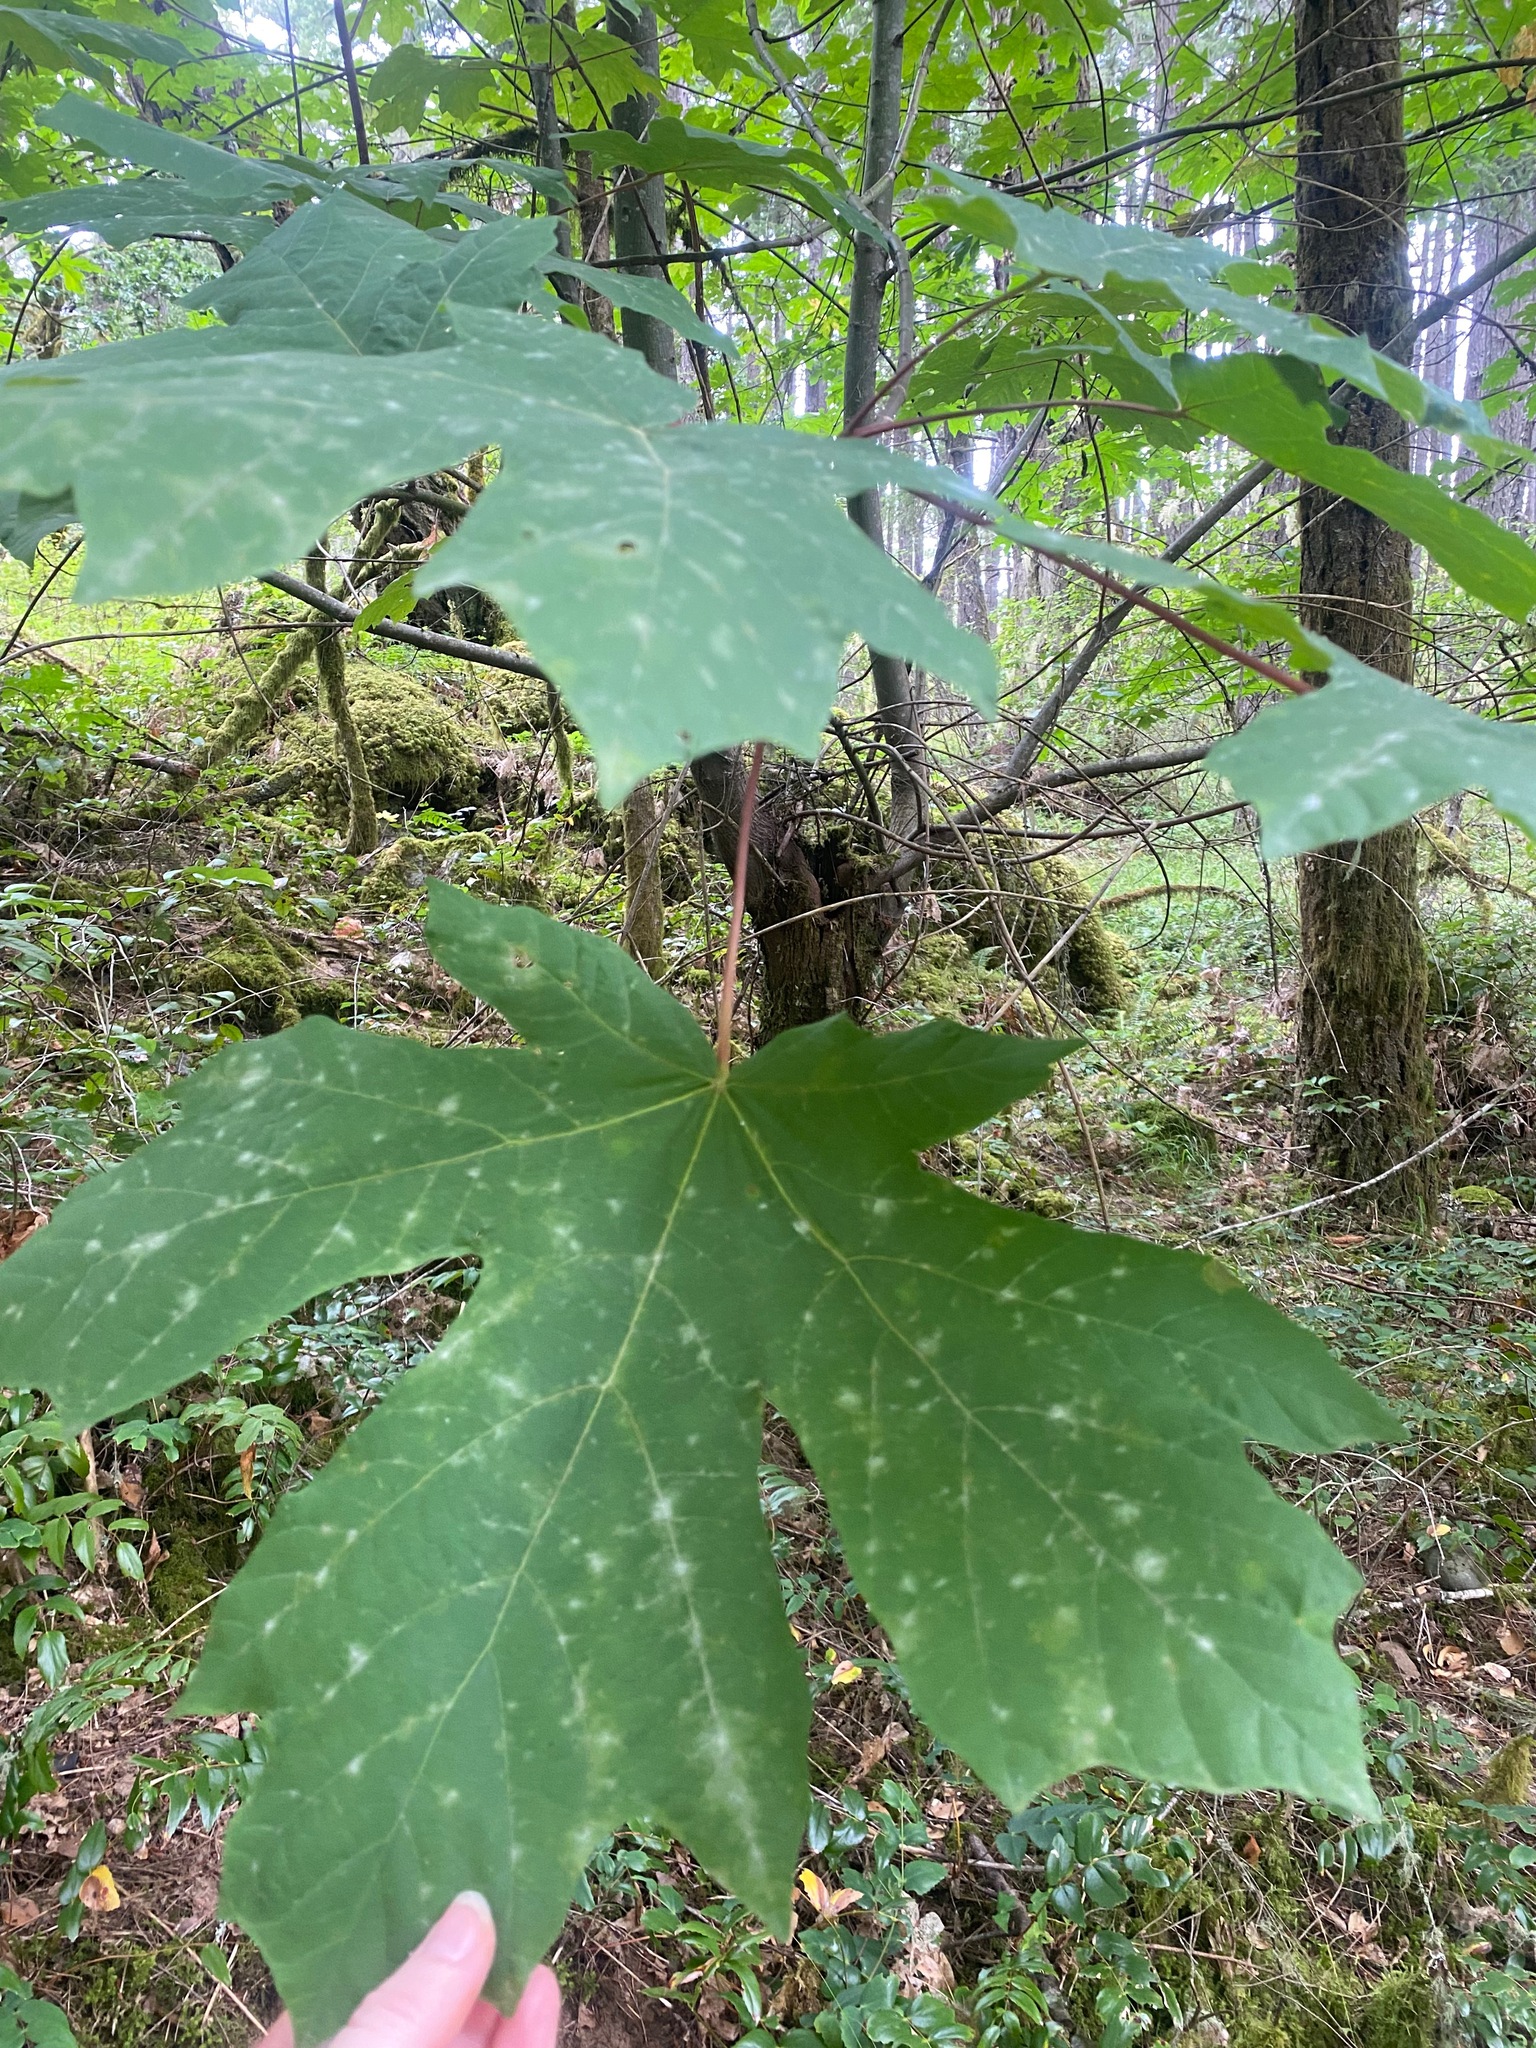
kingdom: Plantae
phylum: Tracheophyta
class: Magnoliopsida
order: Sapindales
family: Sapindaceae
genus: Acer
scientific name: Acer macrophyllum
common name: Oregon maple
